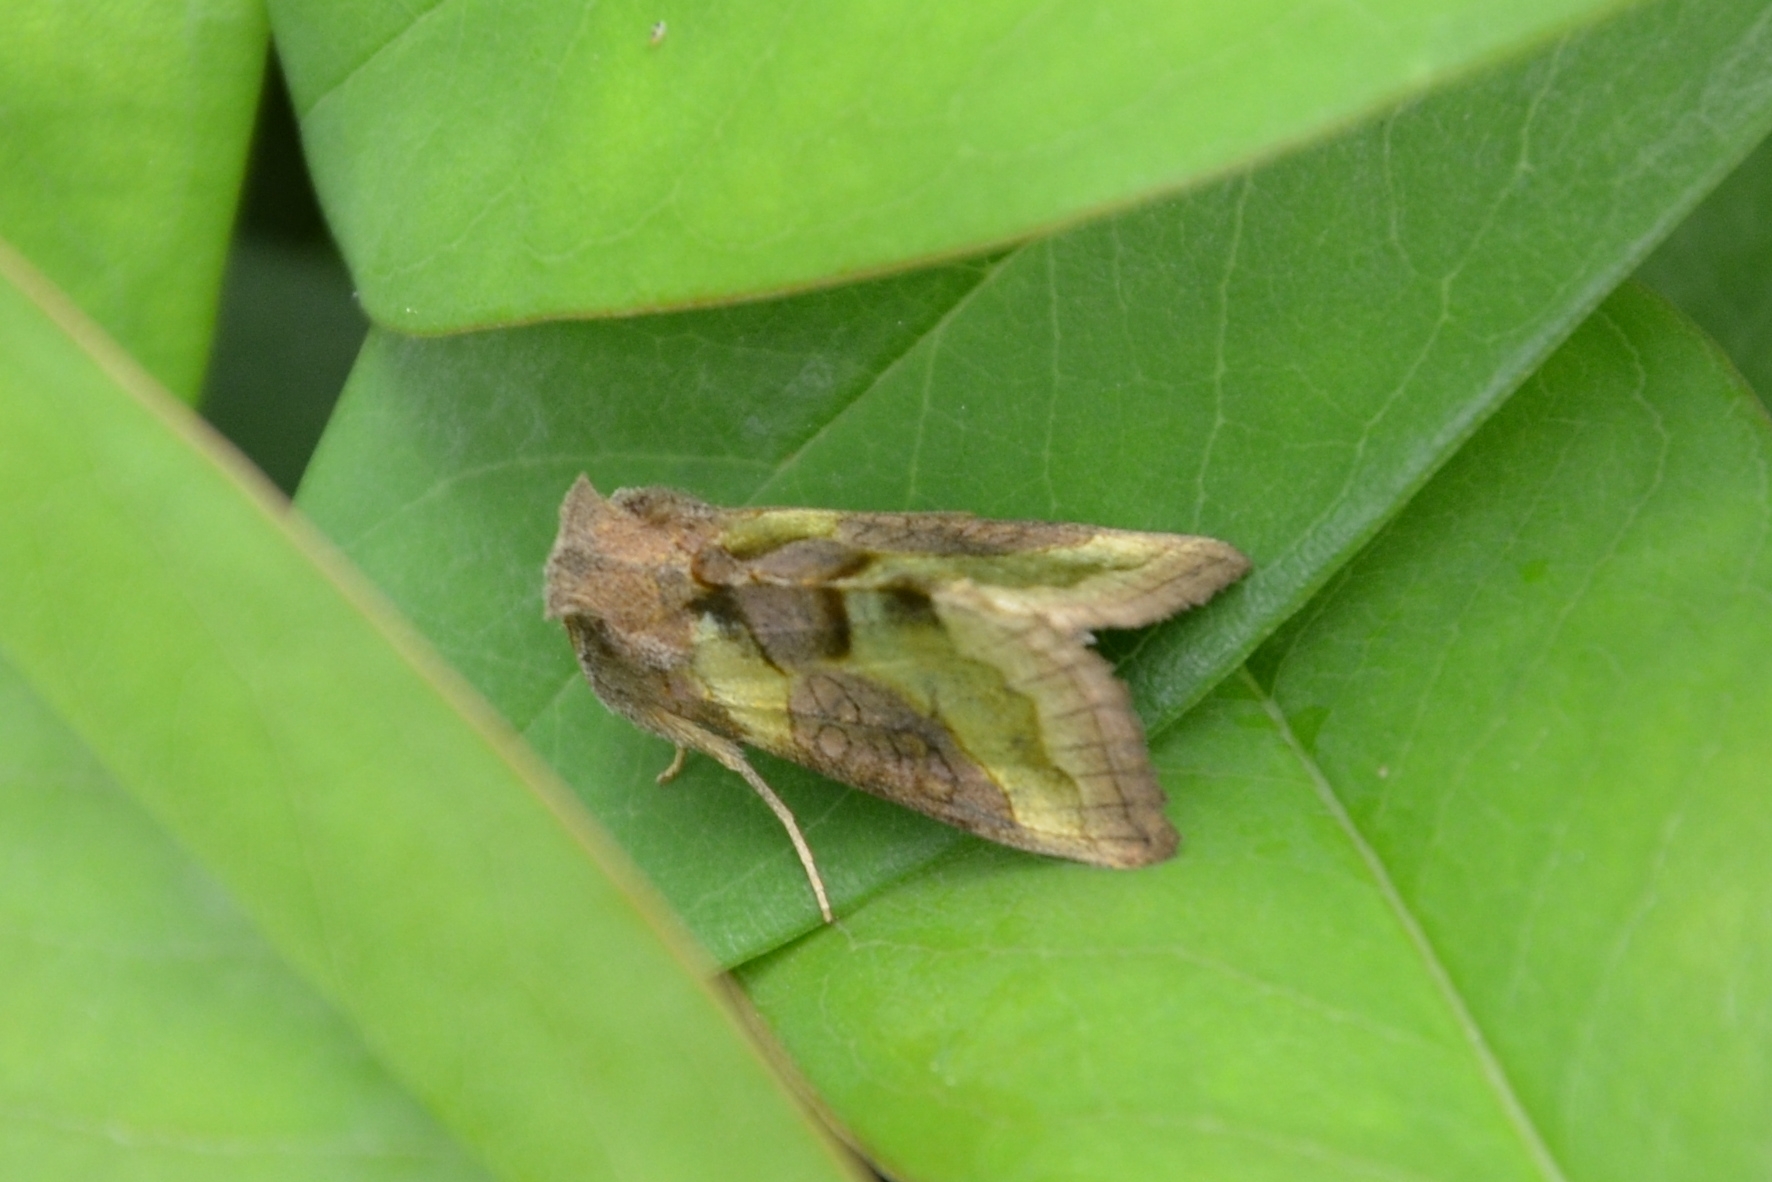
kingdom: Animalia
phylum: Arthropoda
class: Insecta
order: Lepidoptera
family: Noctuidae
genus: Diachrysia
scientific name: Diachrysia chrysitis
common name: Burnished brass
